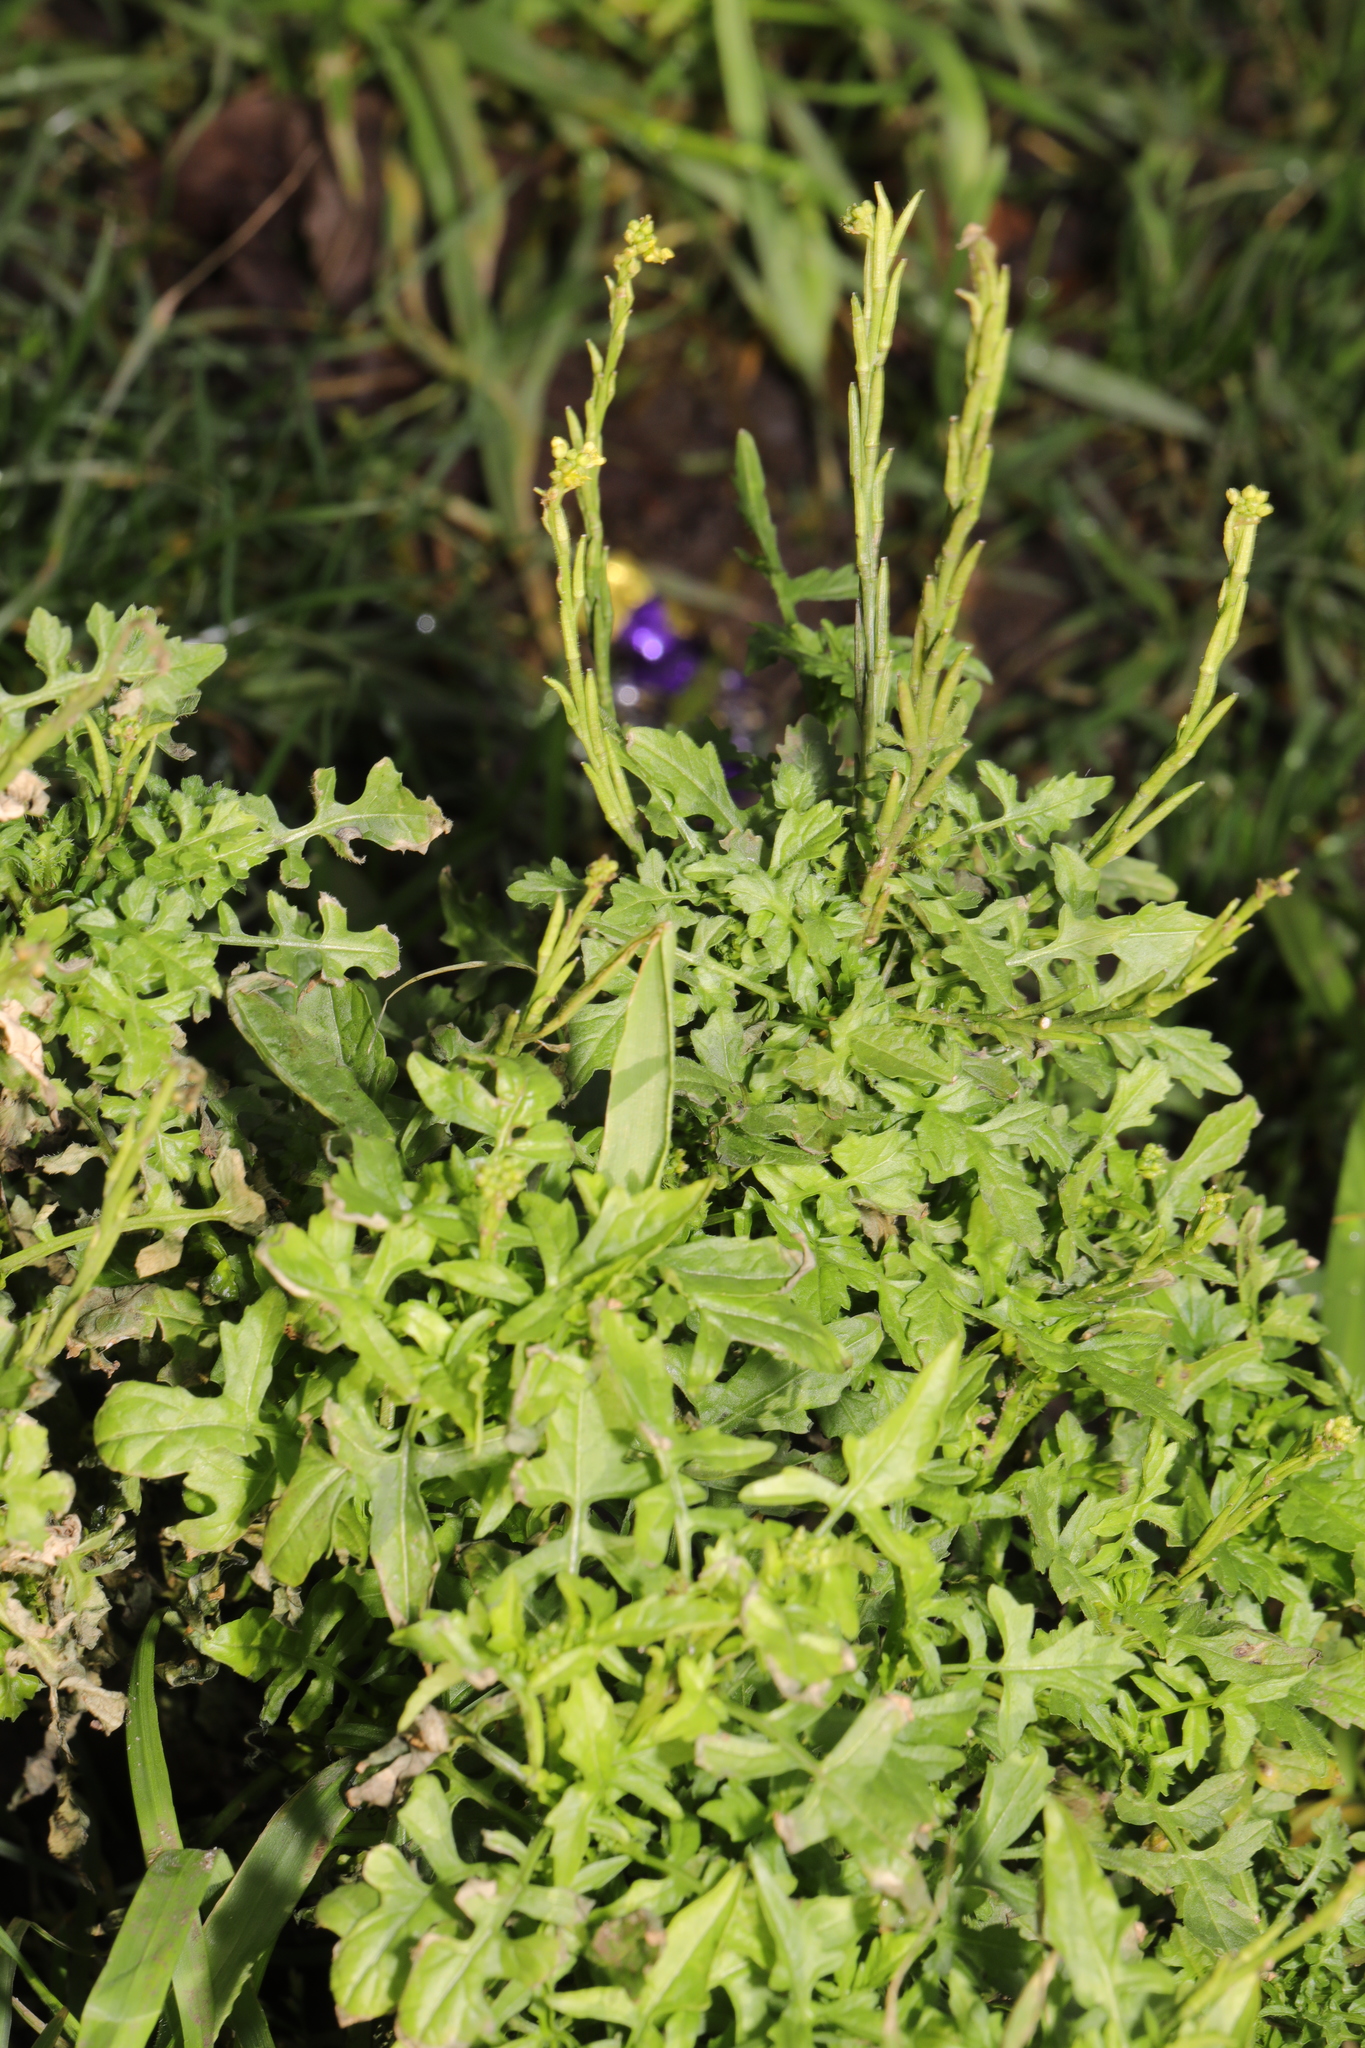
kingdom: Plantae
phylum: Tracheophyta
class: Magnoliopsida
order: Brassicales
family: Brassicaceae
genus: Sisymbrium
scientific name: Sisymbrium officinale
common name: Hedge mustard
